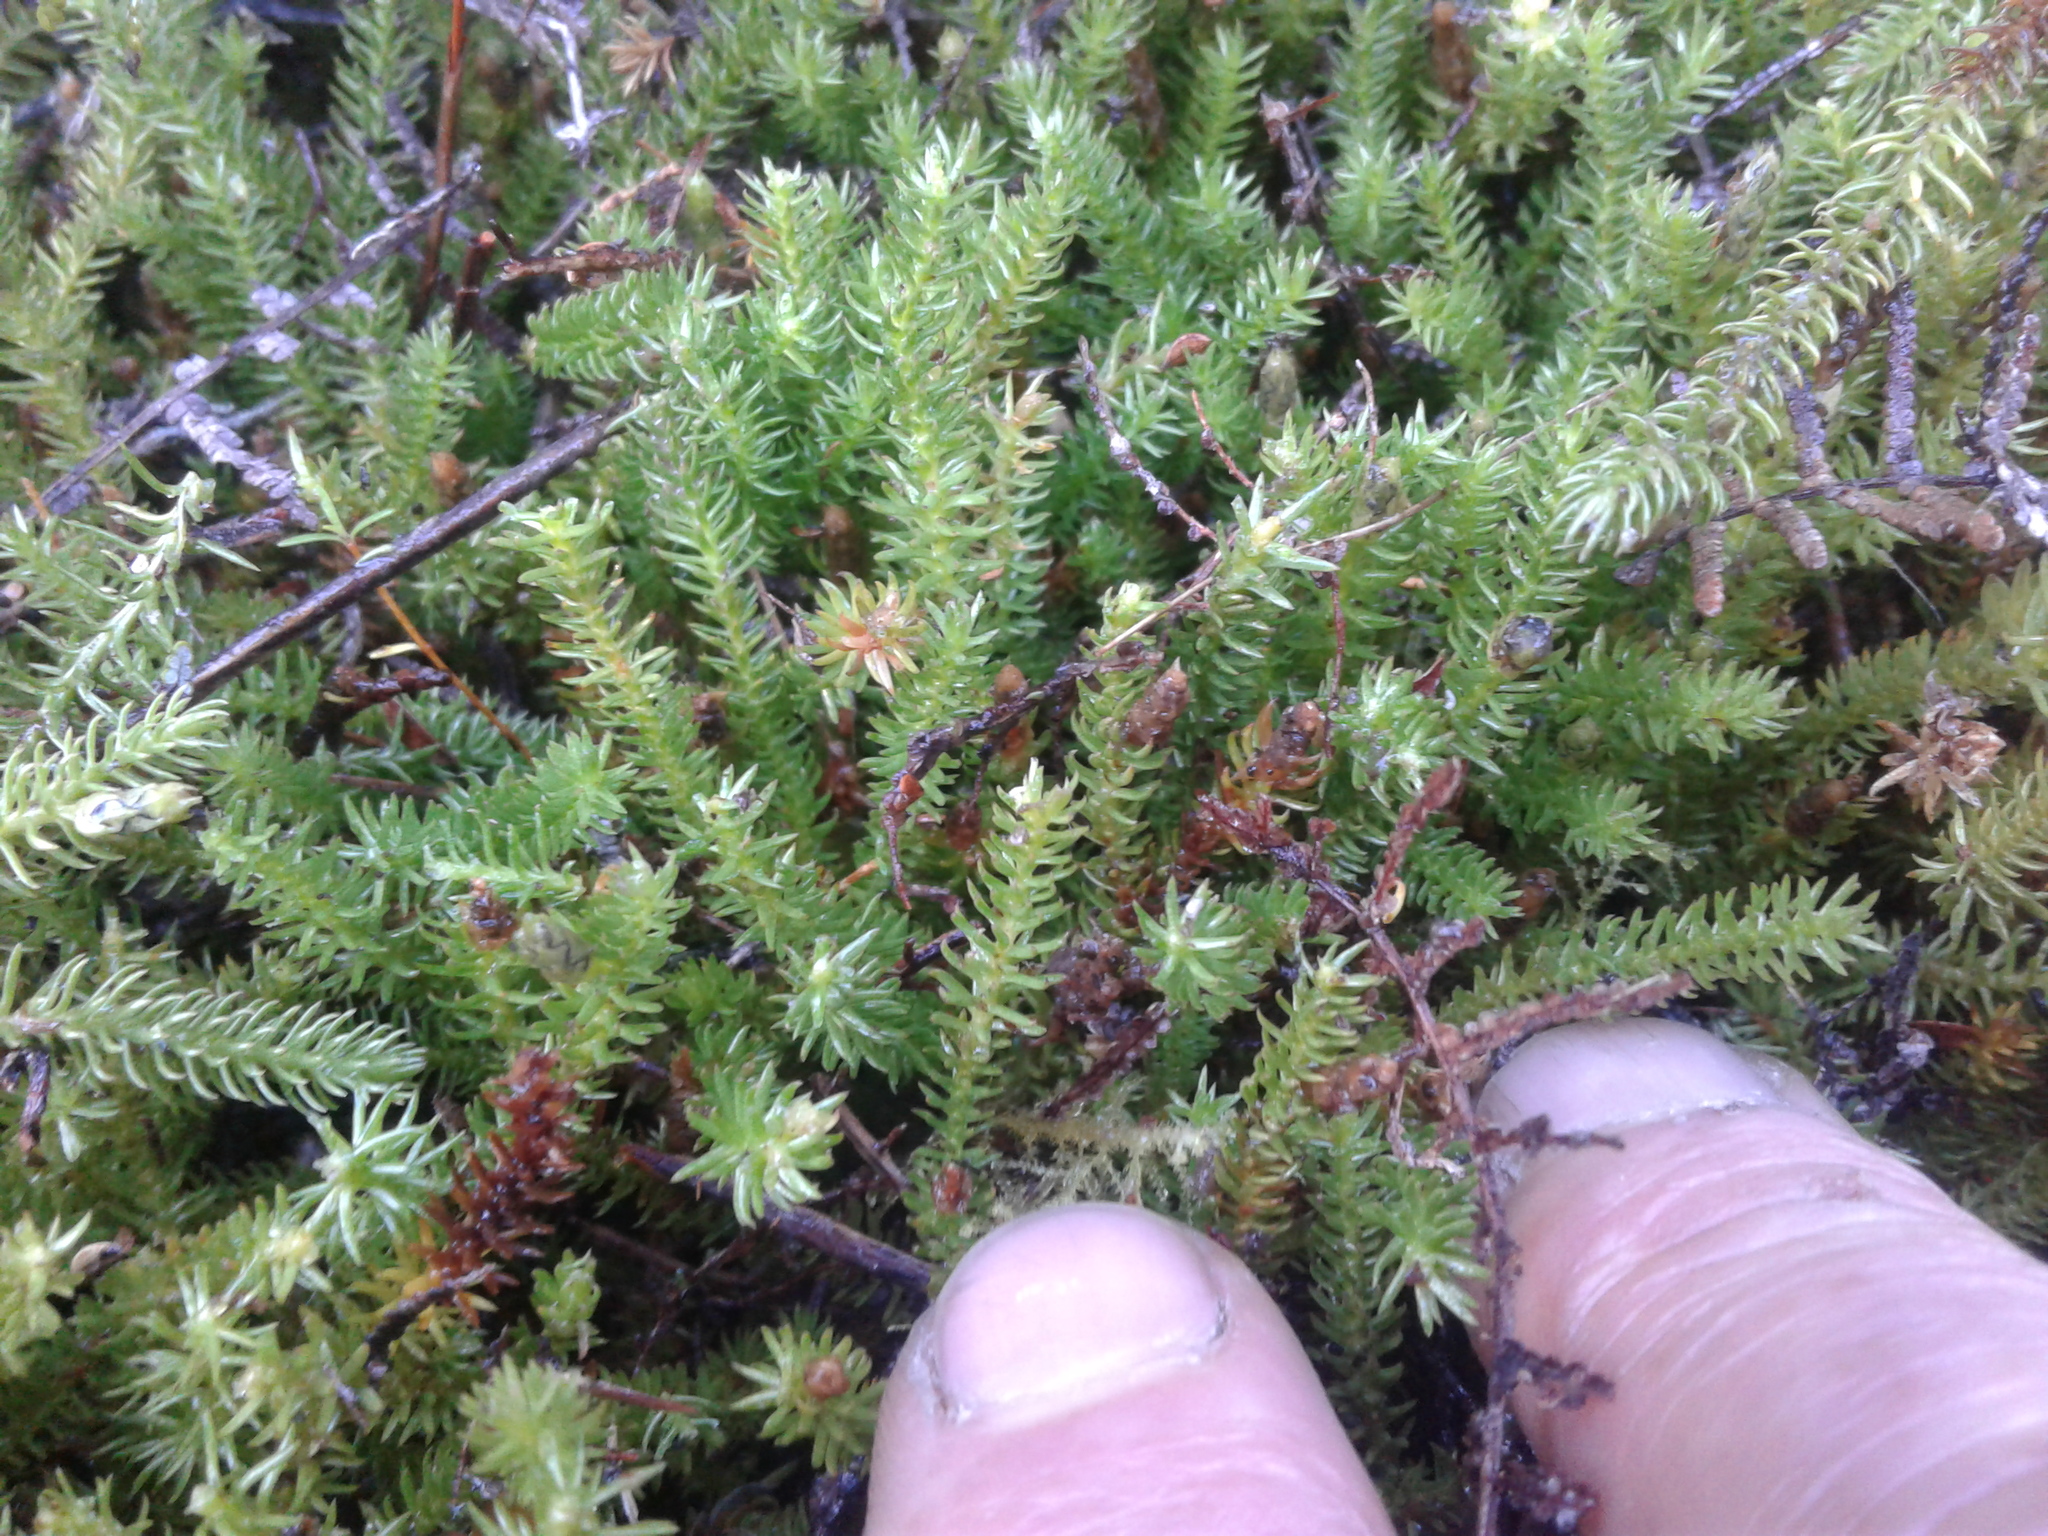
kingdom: Plantae
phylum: Tracheophyta
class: Lycopodiopsida
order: Lycopodiales
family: Lycopodiaceae
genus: Lateristachys
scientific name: Lateristachys lateralis
